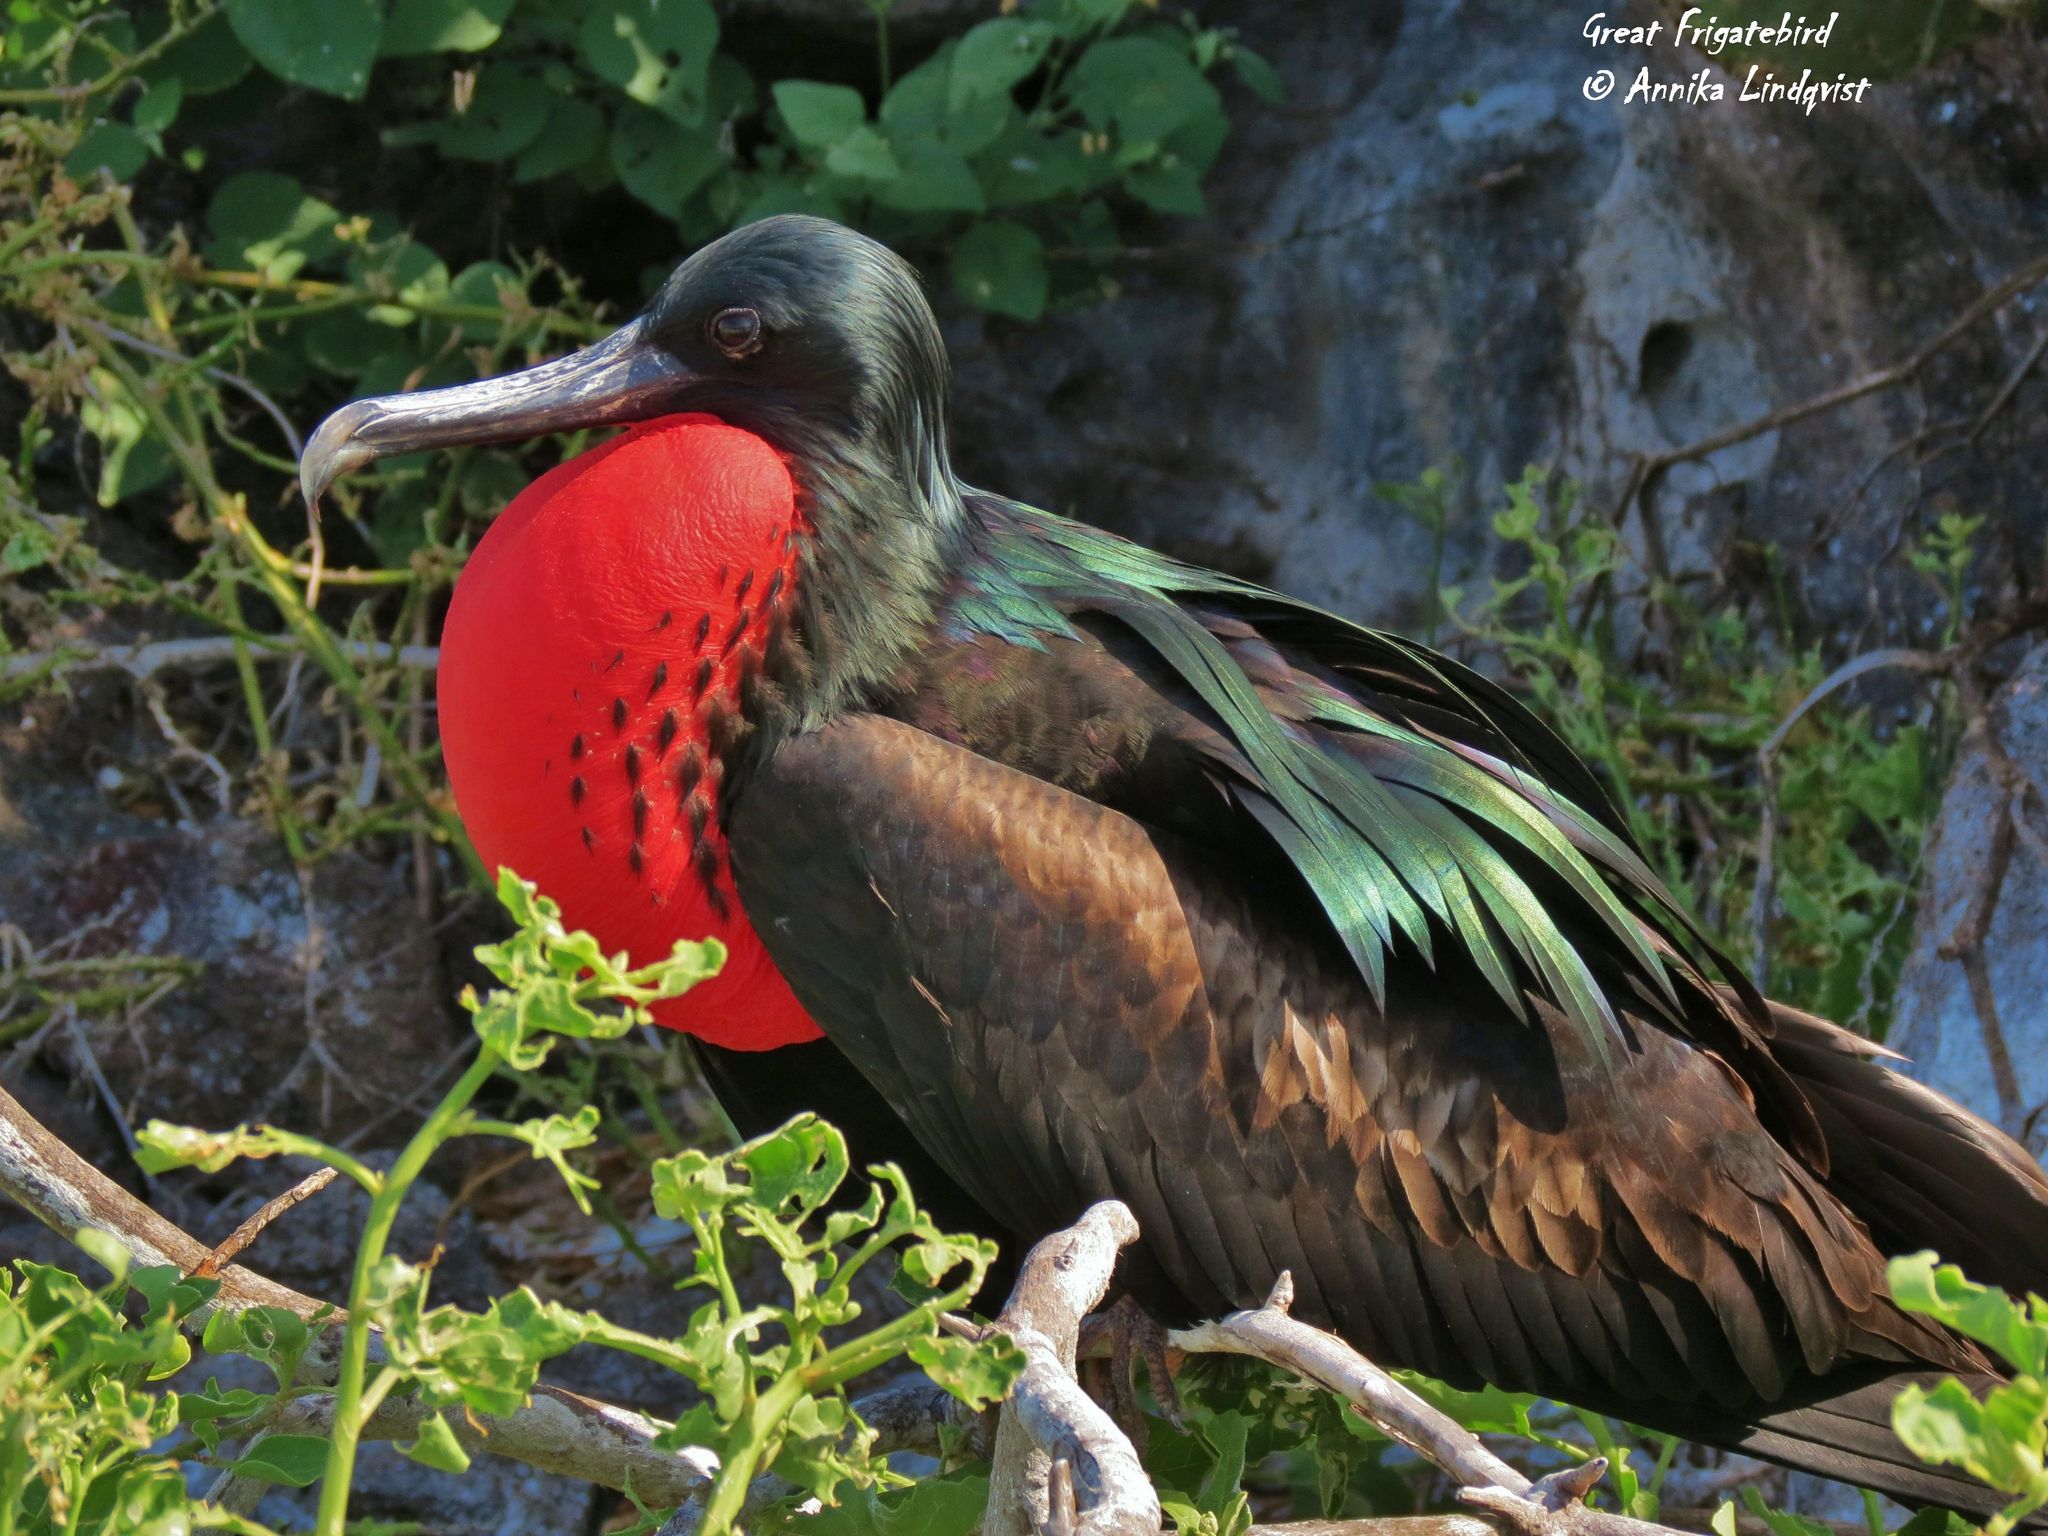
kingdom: Animalia
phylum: Chordata
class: Aves
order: Suliformes
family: Fregatidae
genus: Fregata
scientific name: Fregata minor
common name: Great frigatebird
